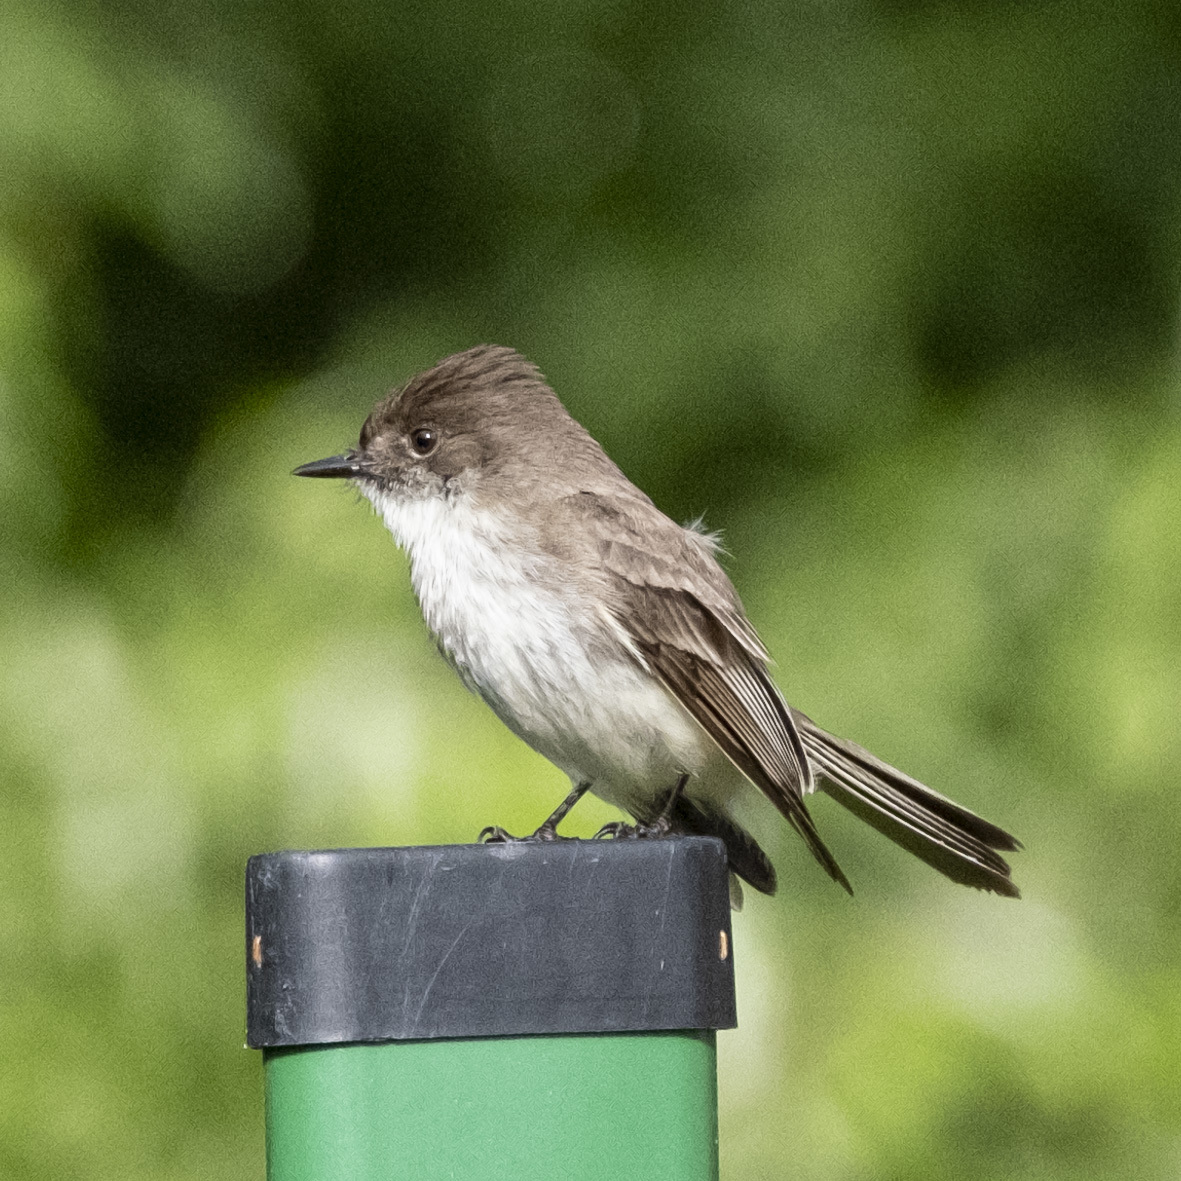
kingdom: Animalia
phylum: Chordata
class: Aves
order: Passeriformes
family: Tyrannidae
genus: Sayornis
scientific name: Sayornis phoebe
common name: Eastern phoebe
